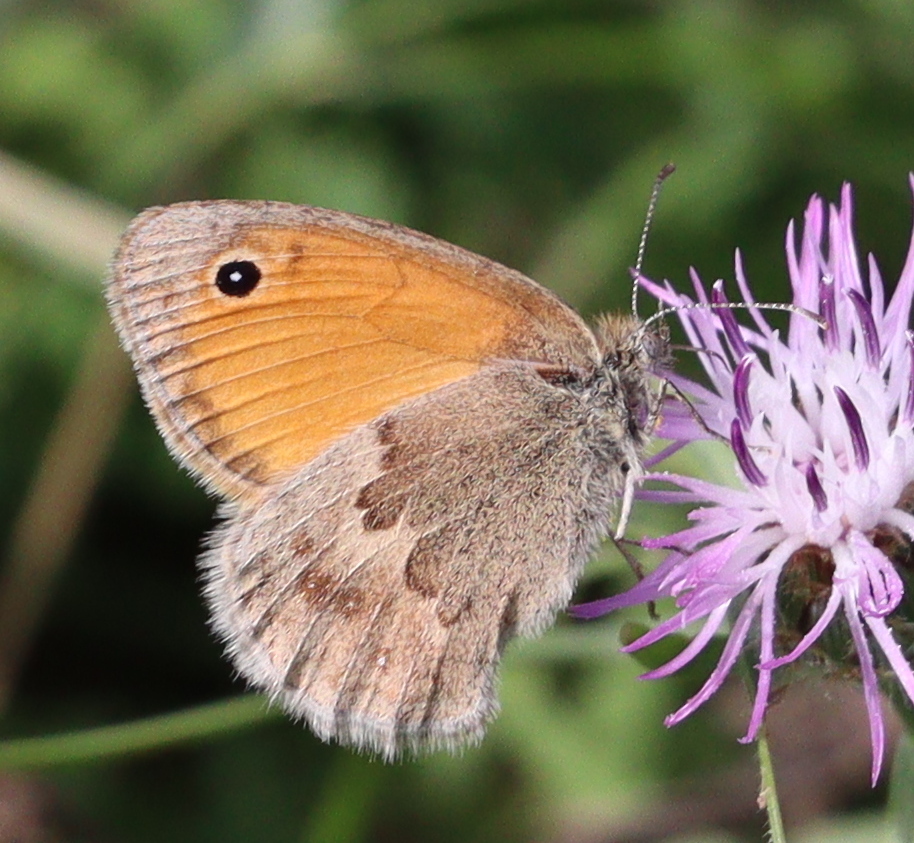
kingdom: Animalia
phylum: Arthropoda
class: Insecta
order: Lepidoptera
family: Nymphalidae
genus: Coenonympha
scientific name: Coenonympha pamphilus
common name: Small heath
